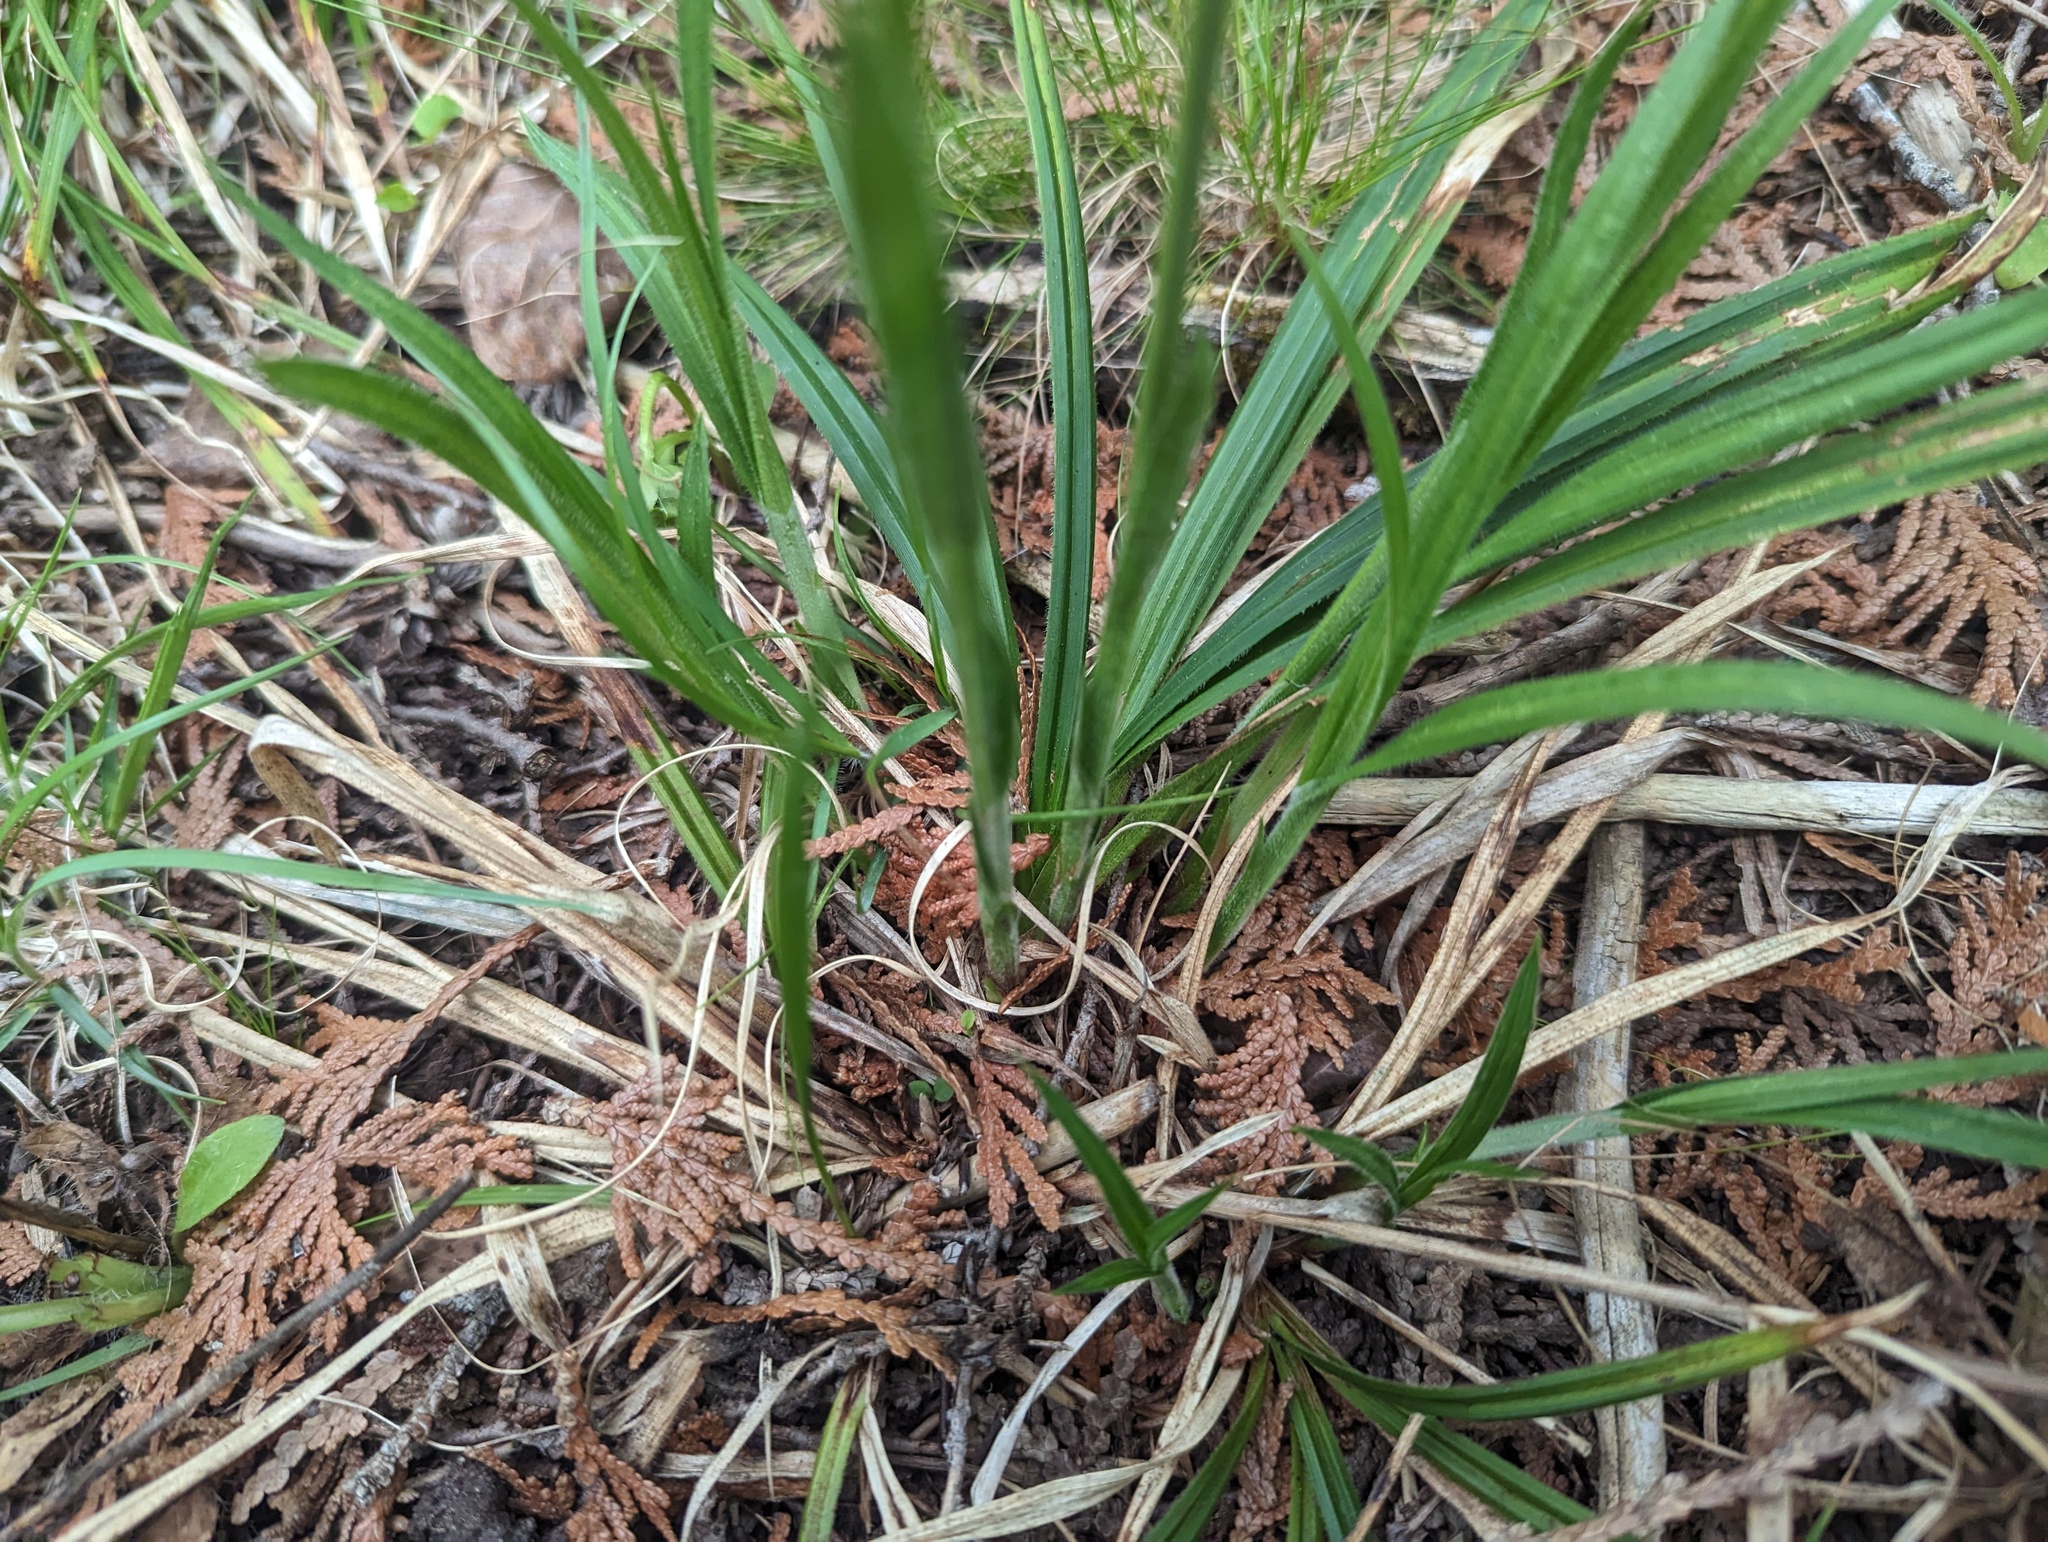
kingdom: Plantae
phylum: Tracheophyta
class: Liliopsida
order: Poales
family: Cyperaceae
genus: Carex
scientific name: Carex castanea
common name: Chestnut sedge
